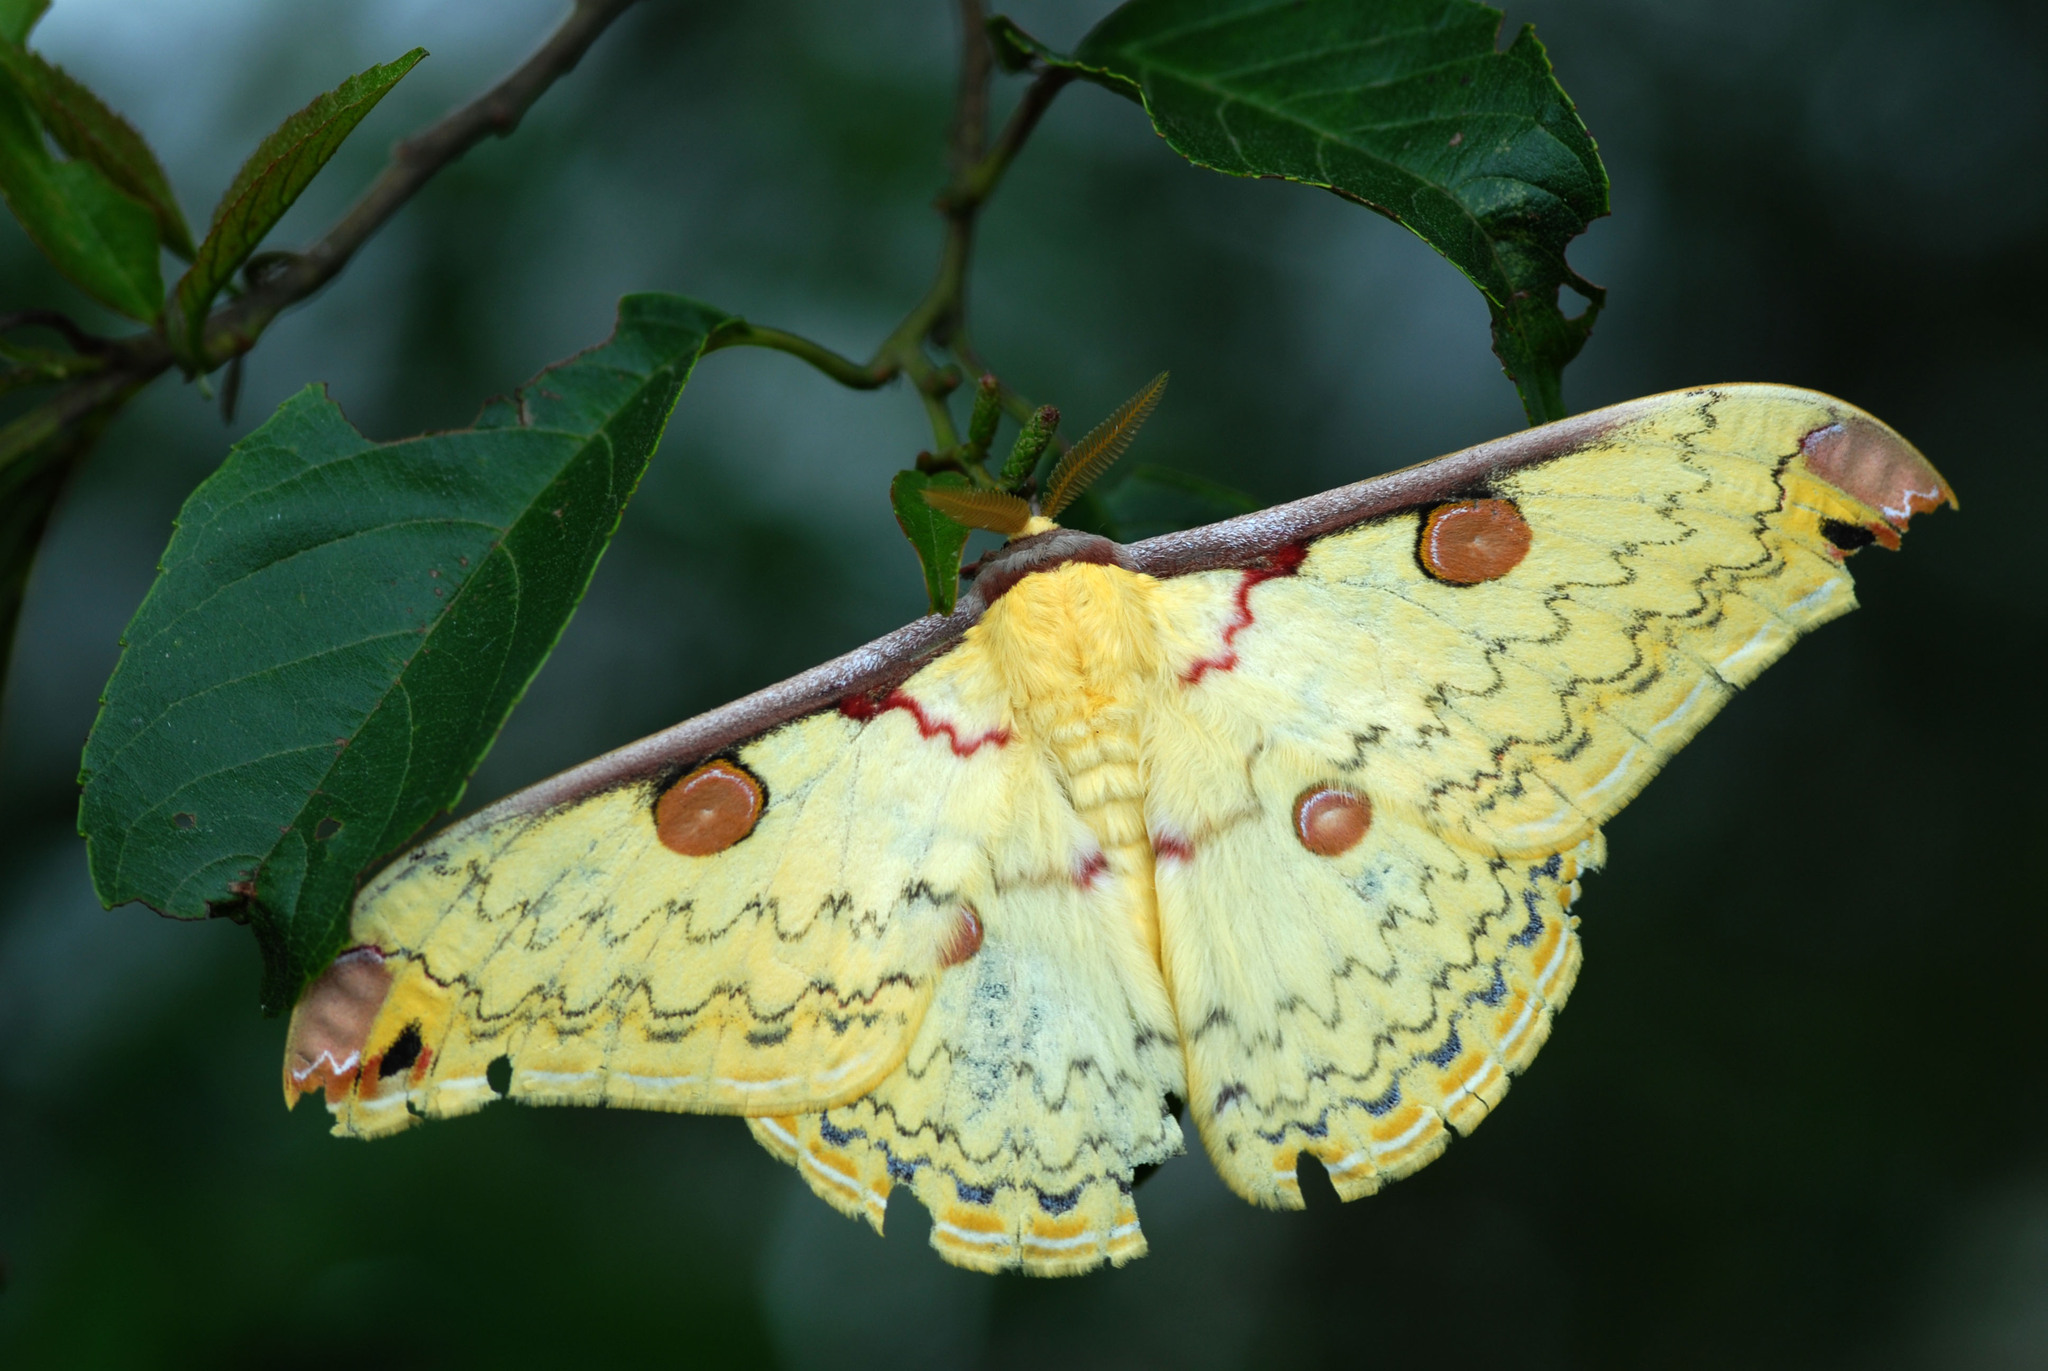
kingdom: Animalia
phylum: Arthropoda
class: Insecta
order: Lepidoptera
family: Saturniidae
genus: Loepa
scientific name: Loepa mirandula
